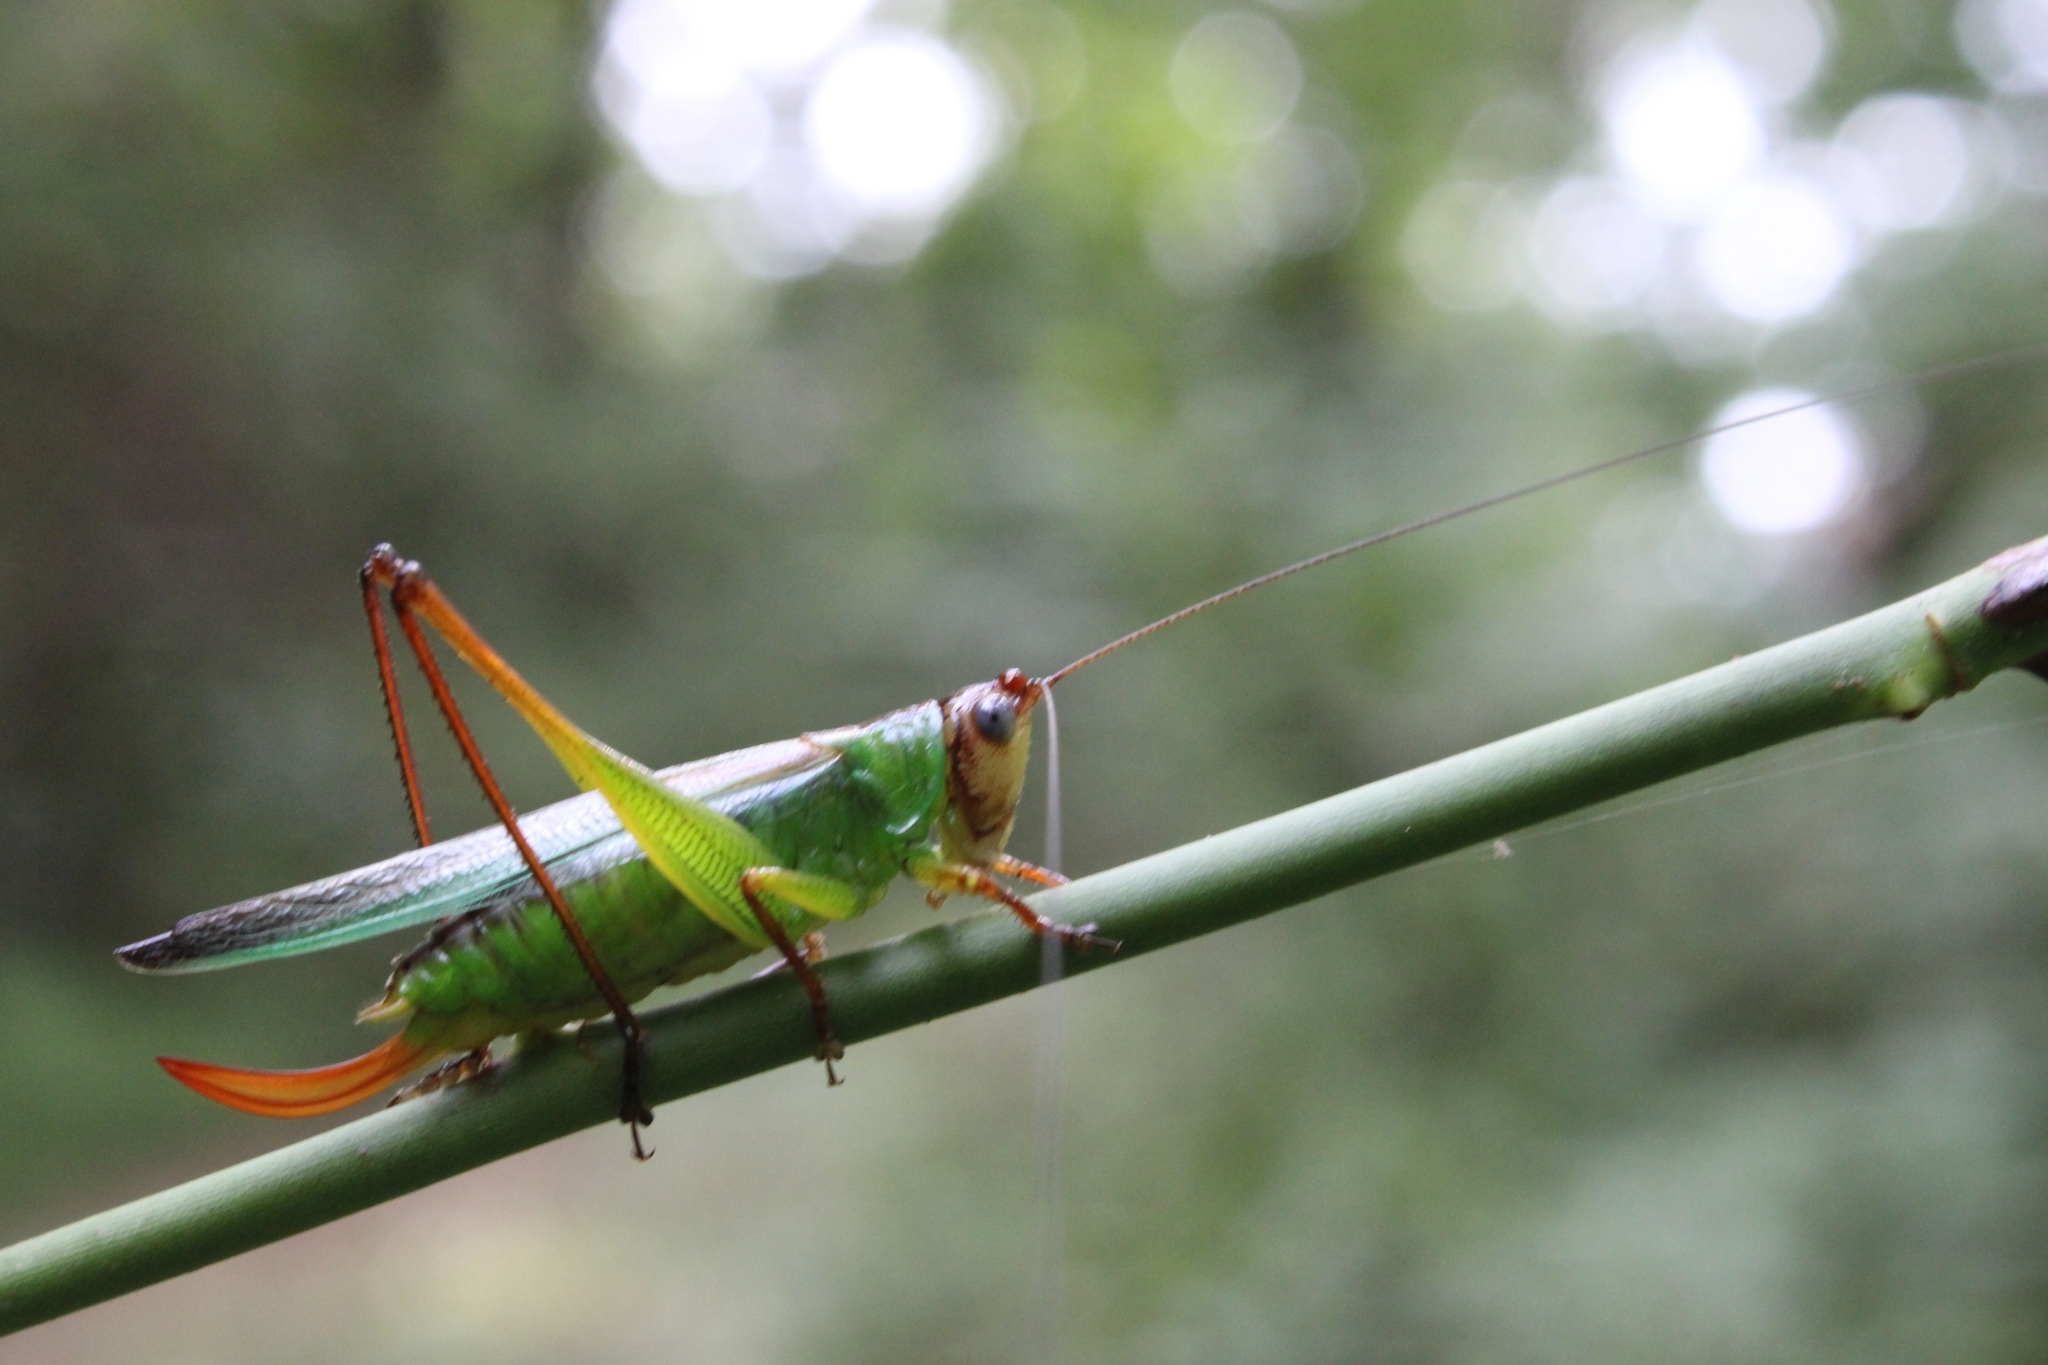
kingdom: Animalia
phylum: Arthropoda
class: Insecta
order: Orthoptera
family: Tettigoniidae
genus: Orchelimum
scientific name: Orchelimum pulchellum
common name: Handsome meadow katydid
